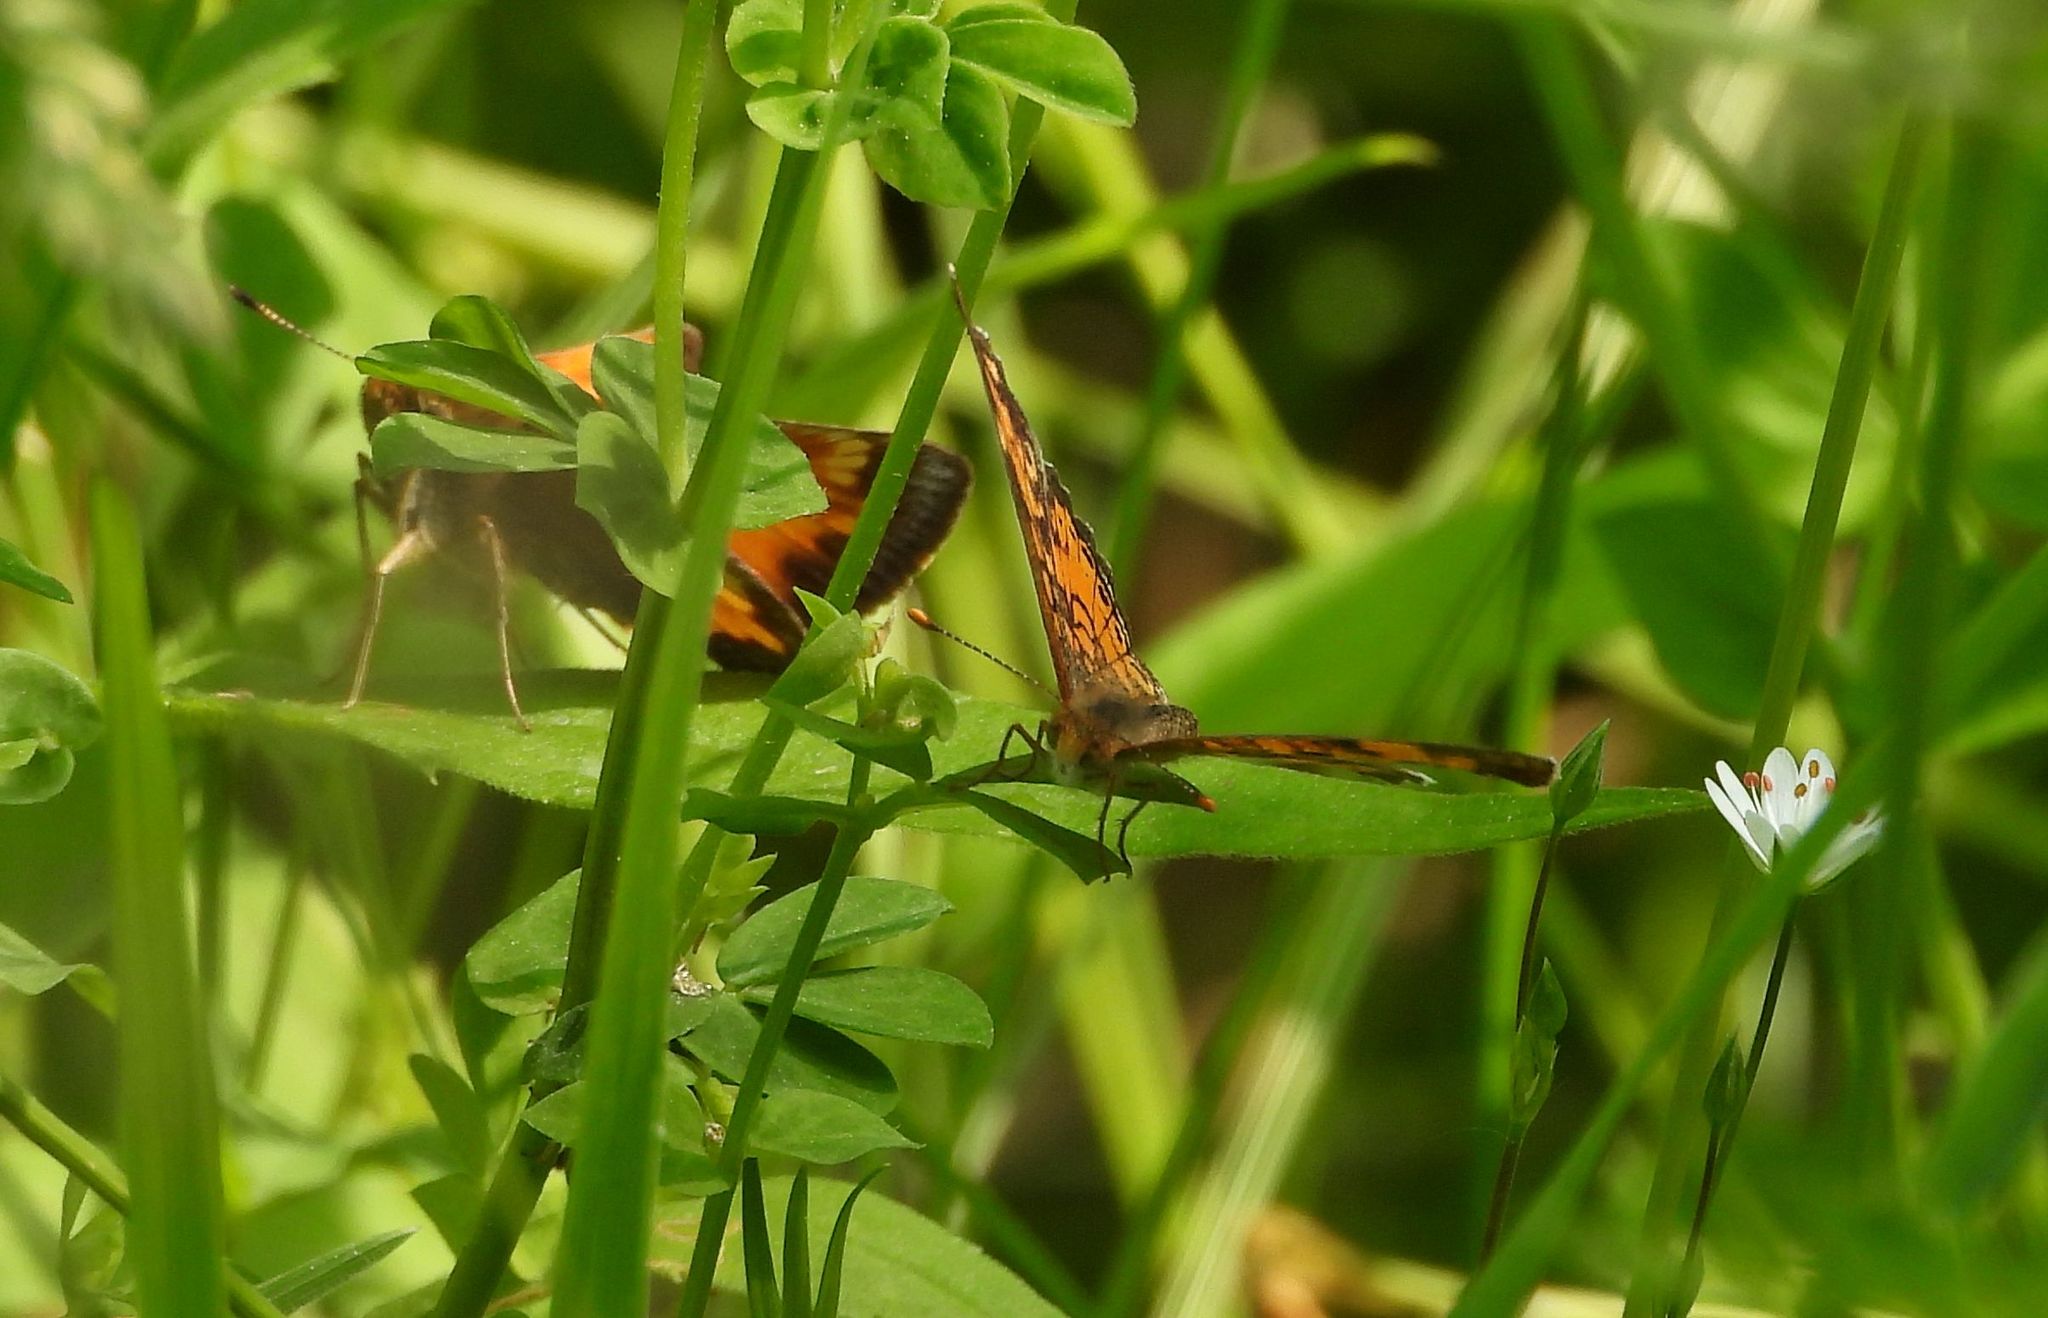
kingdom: Animalia
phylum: Arthropoda
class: Insecta
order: Lepidoptera
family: Nymphalidae
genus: Phyciodes
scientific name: Phyciodes tharos
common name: Pearl crescent
